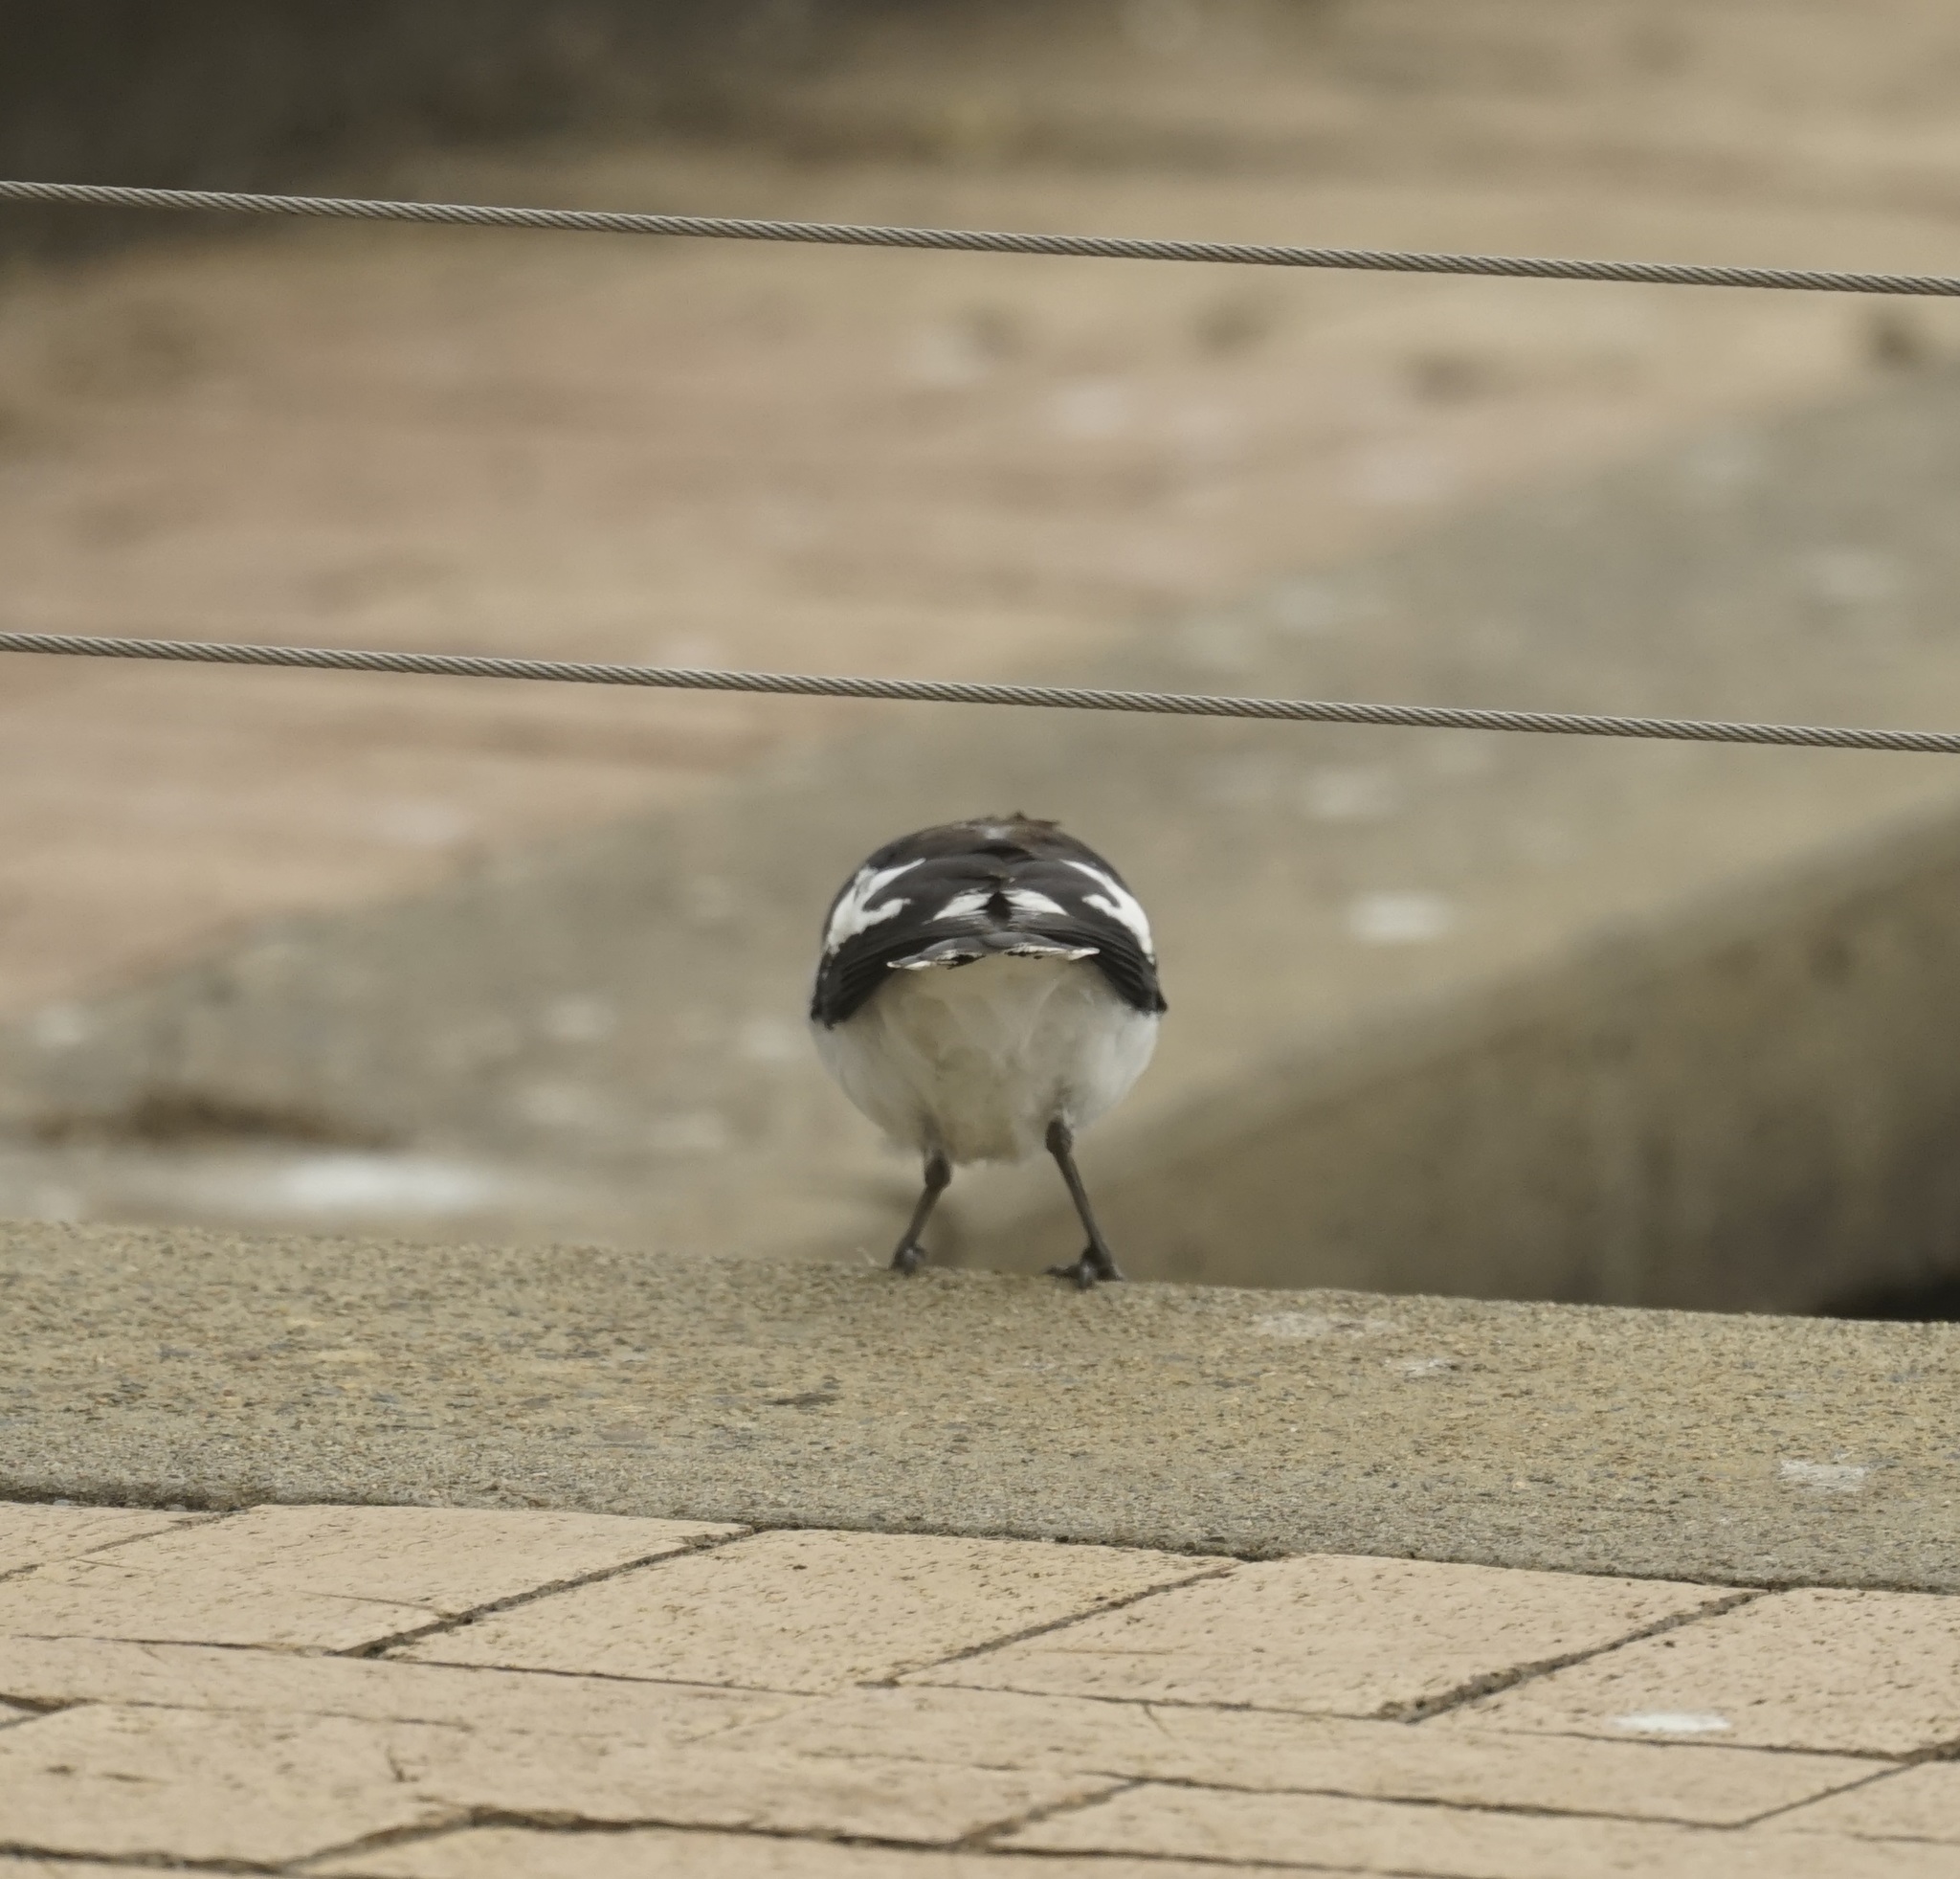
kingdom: Animalia
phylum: Chordata
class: Aves
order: Passeriformes
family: Monarchidae
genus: Grallina
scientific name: Grallina cyanoleuca
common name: Magpie-lark
